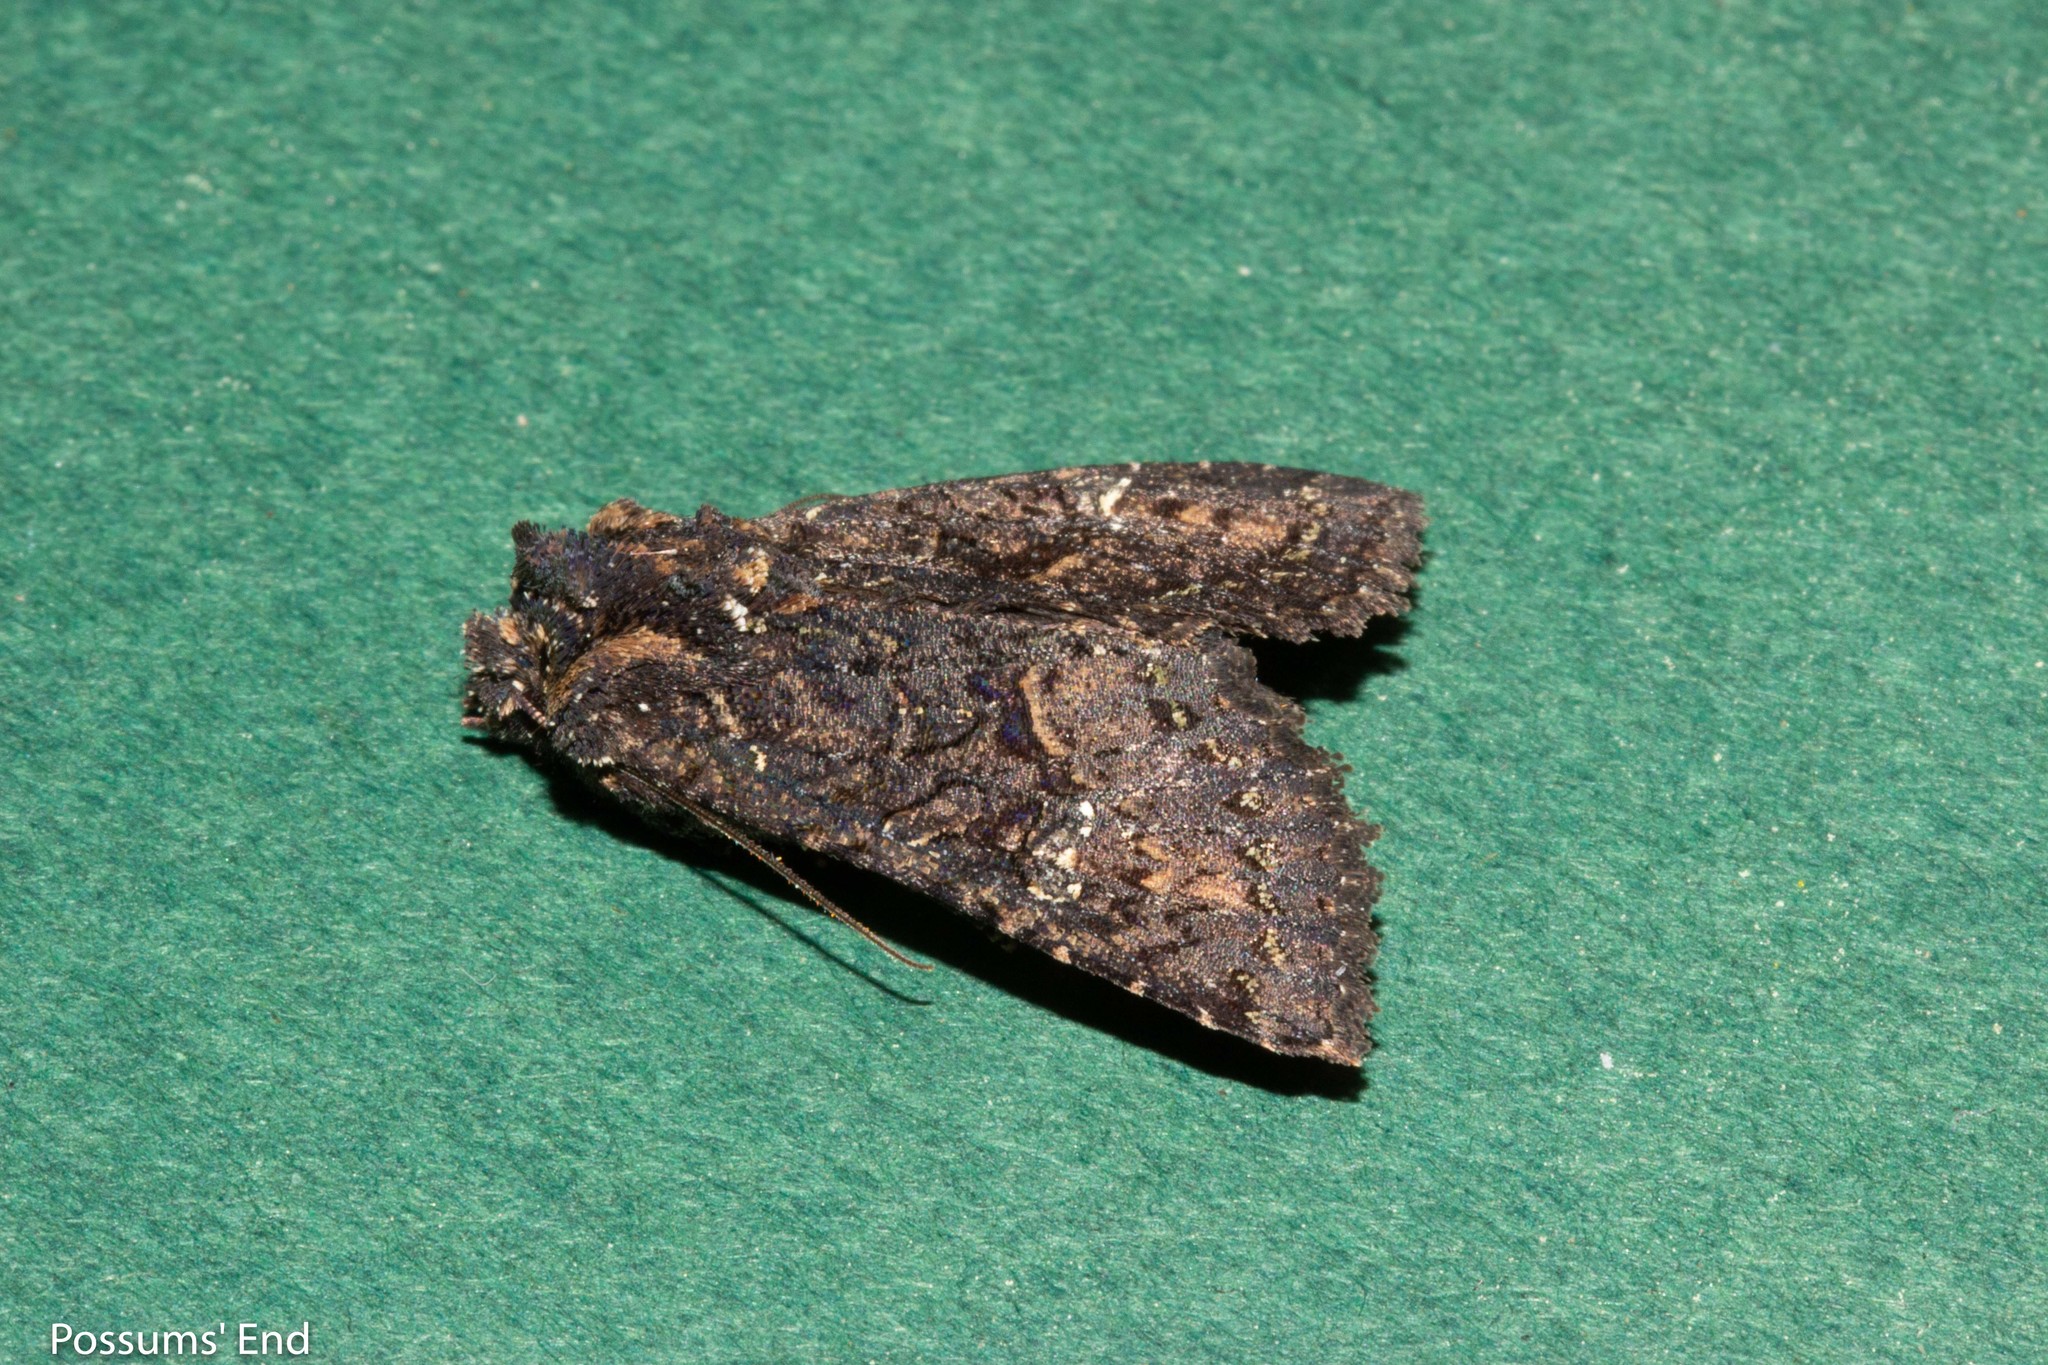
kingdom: Animalia
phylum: Arthropoda
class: Insecta
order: Lepidoptera
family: Noctuidae
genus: Meterana
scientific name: Meterana ochthistis
